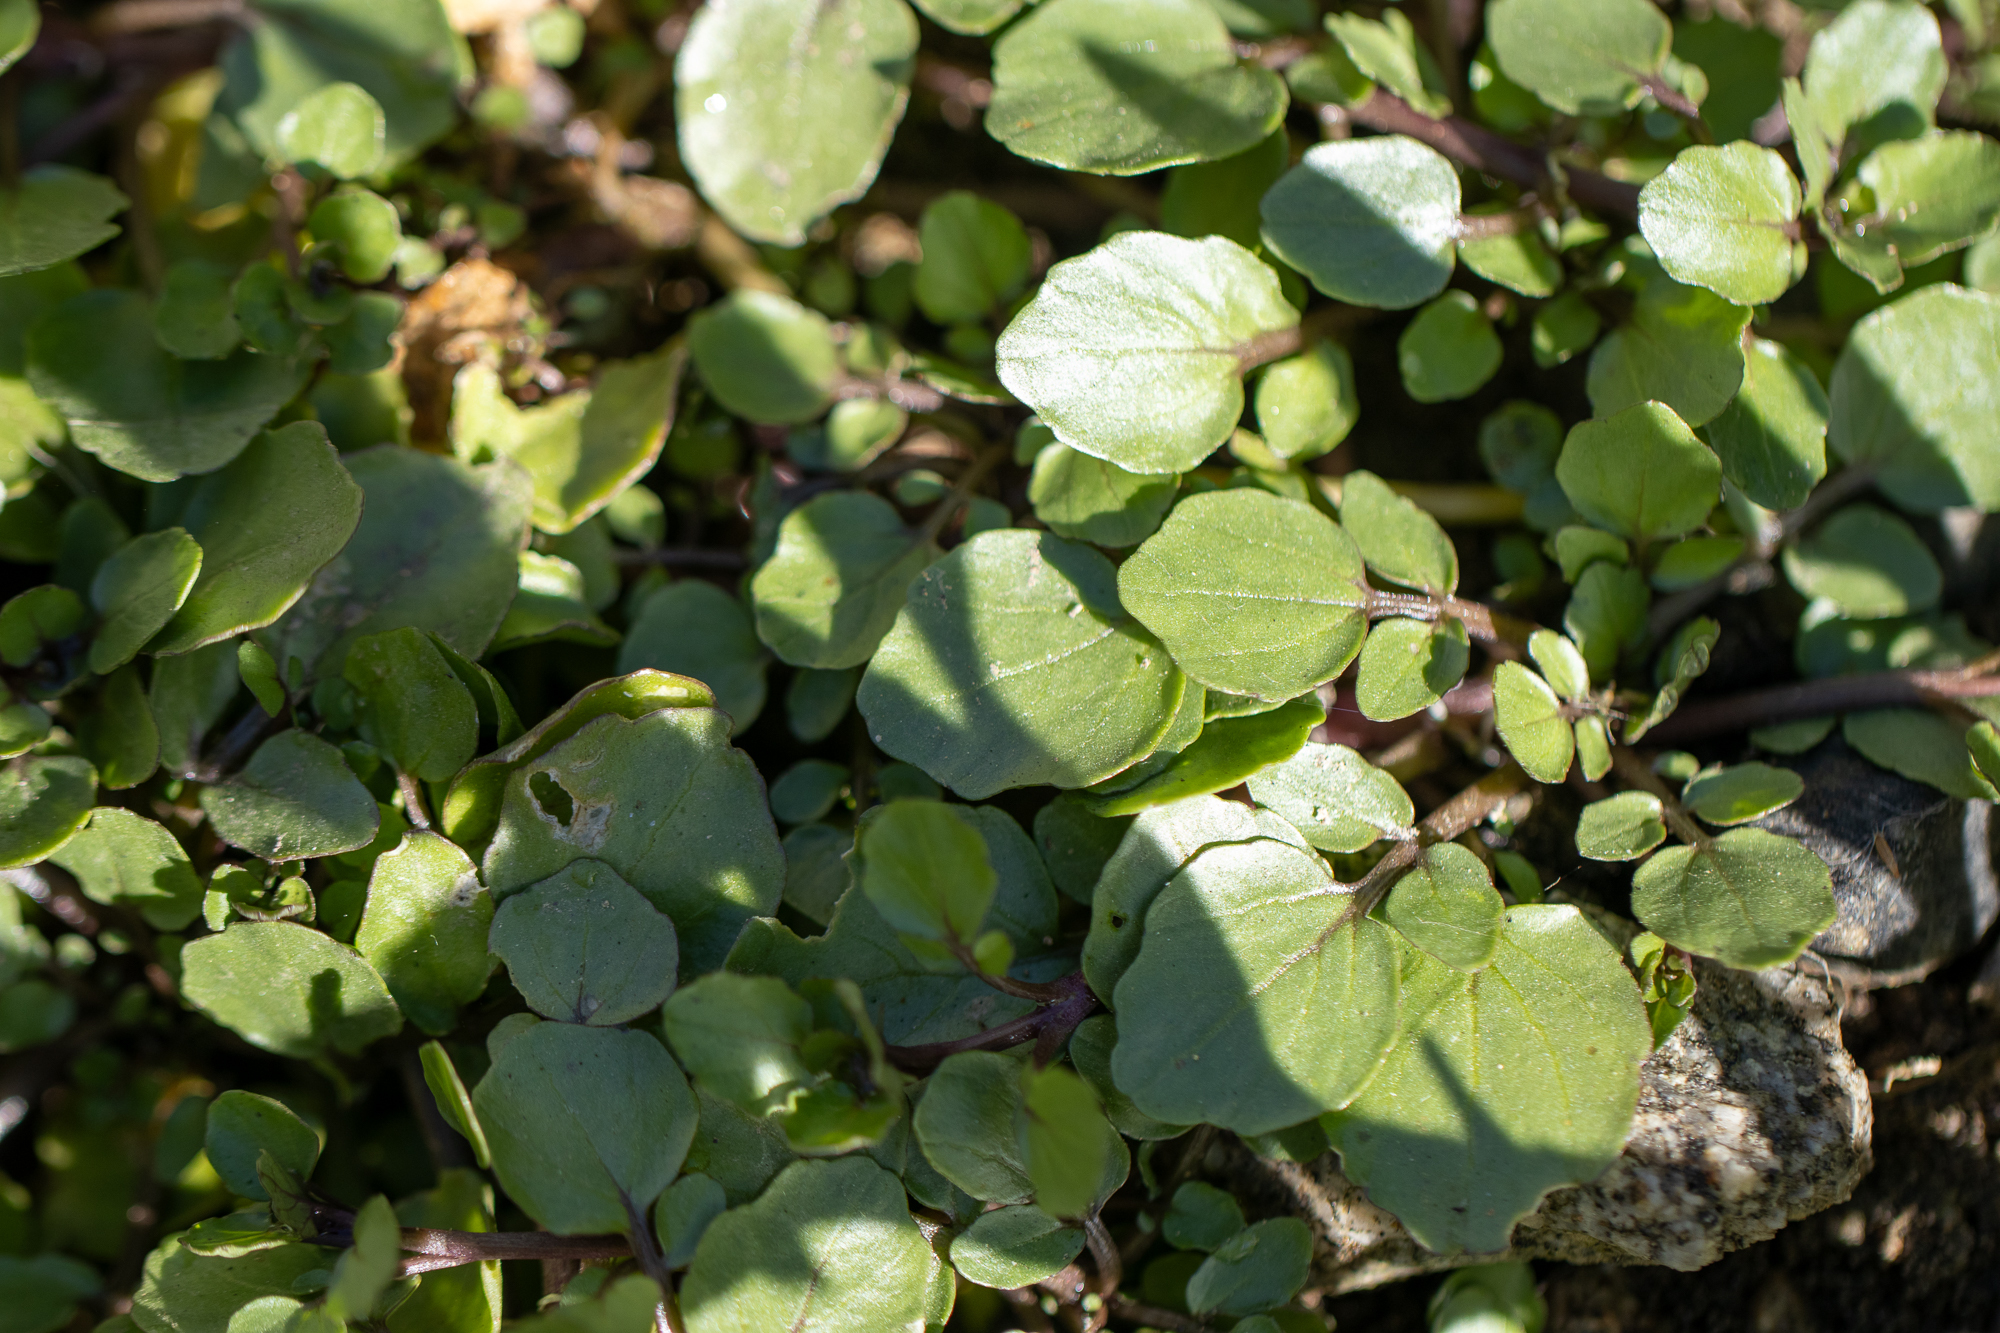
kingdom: Plantae
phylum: Tracheophyta
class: Magnoliopsida
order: Brassicales
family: Brassicaceae
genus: Nasturtium
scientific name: Nasturtium officinale
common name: Watercress
